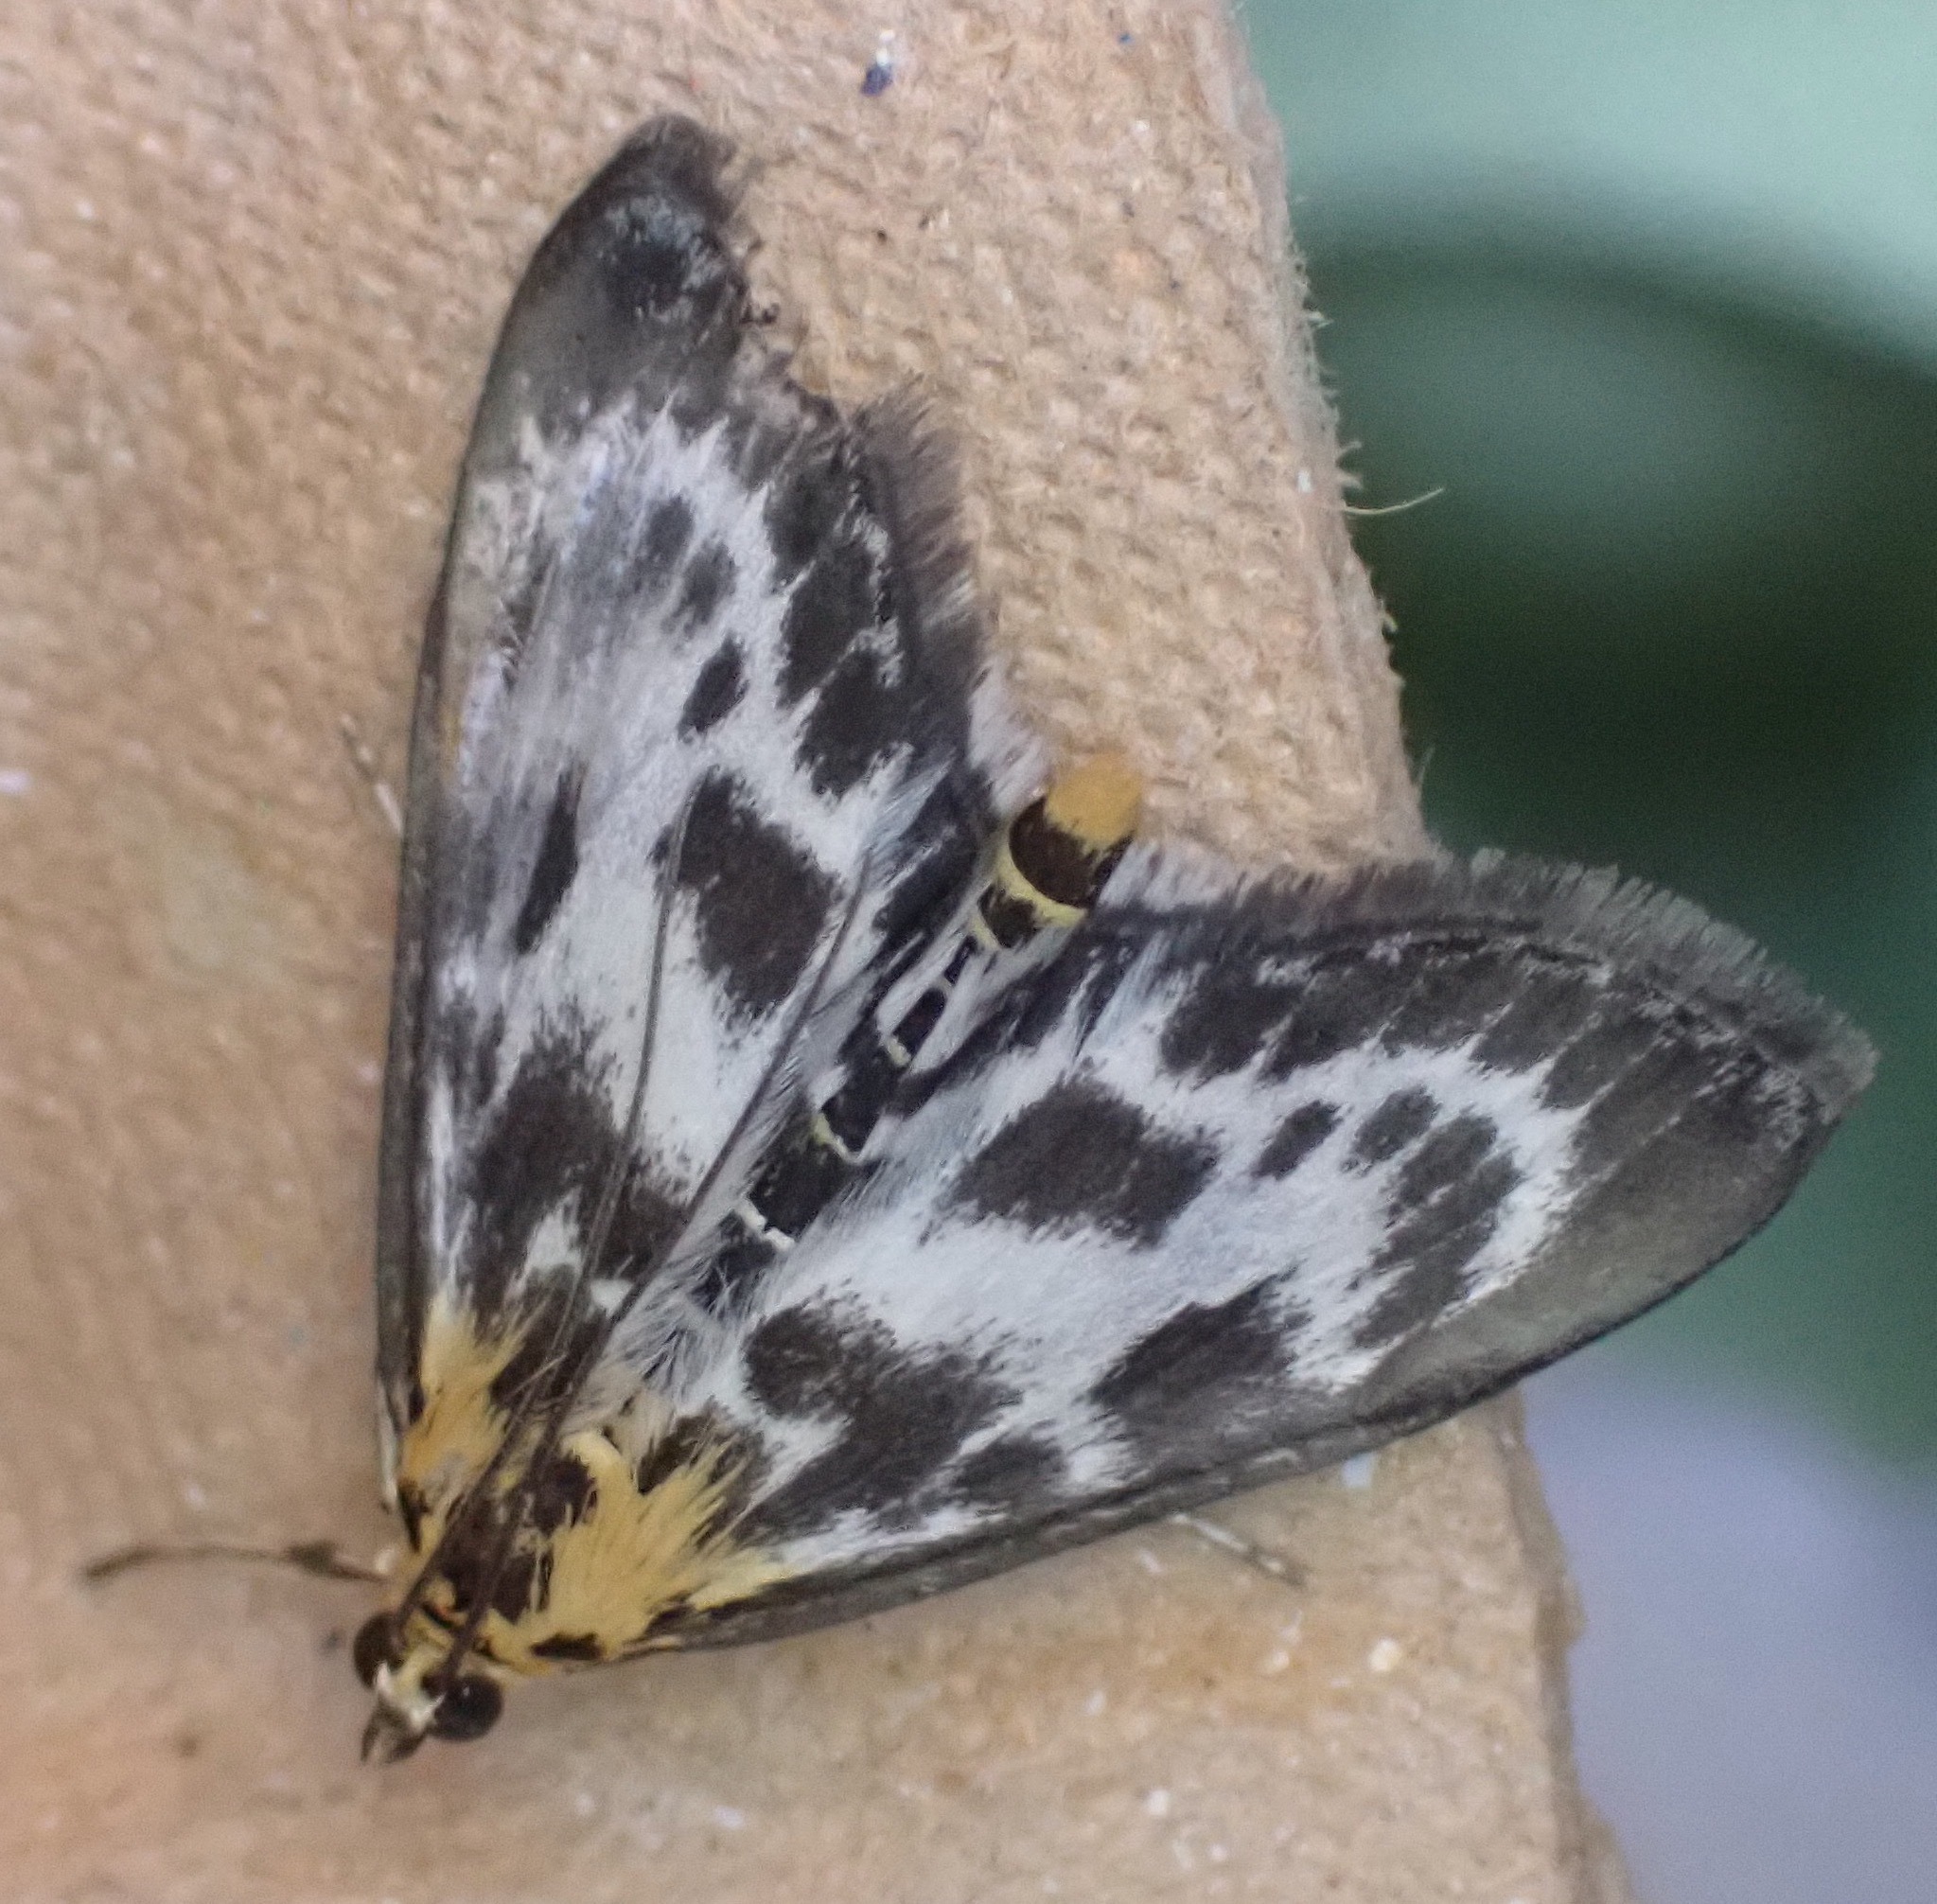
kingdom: Animalia
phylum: Arthropoda
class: Insecta
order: Lepidoptera
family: Crambidae
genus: Anania
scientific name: Anania hortulata
